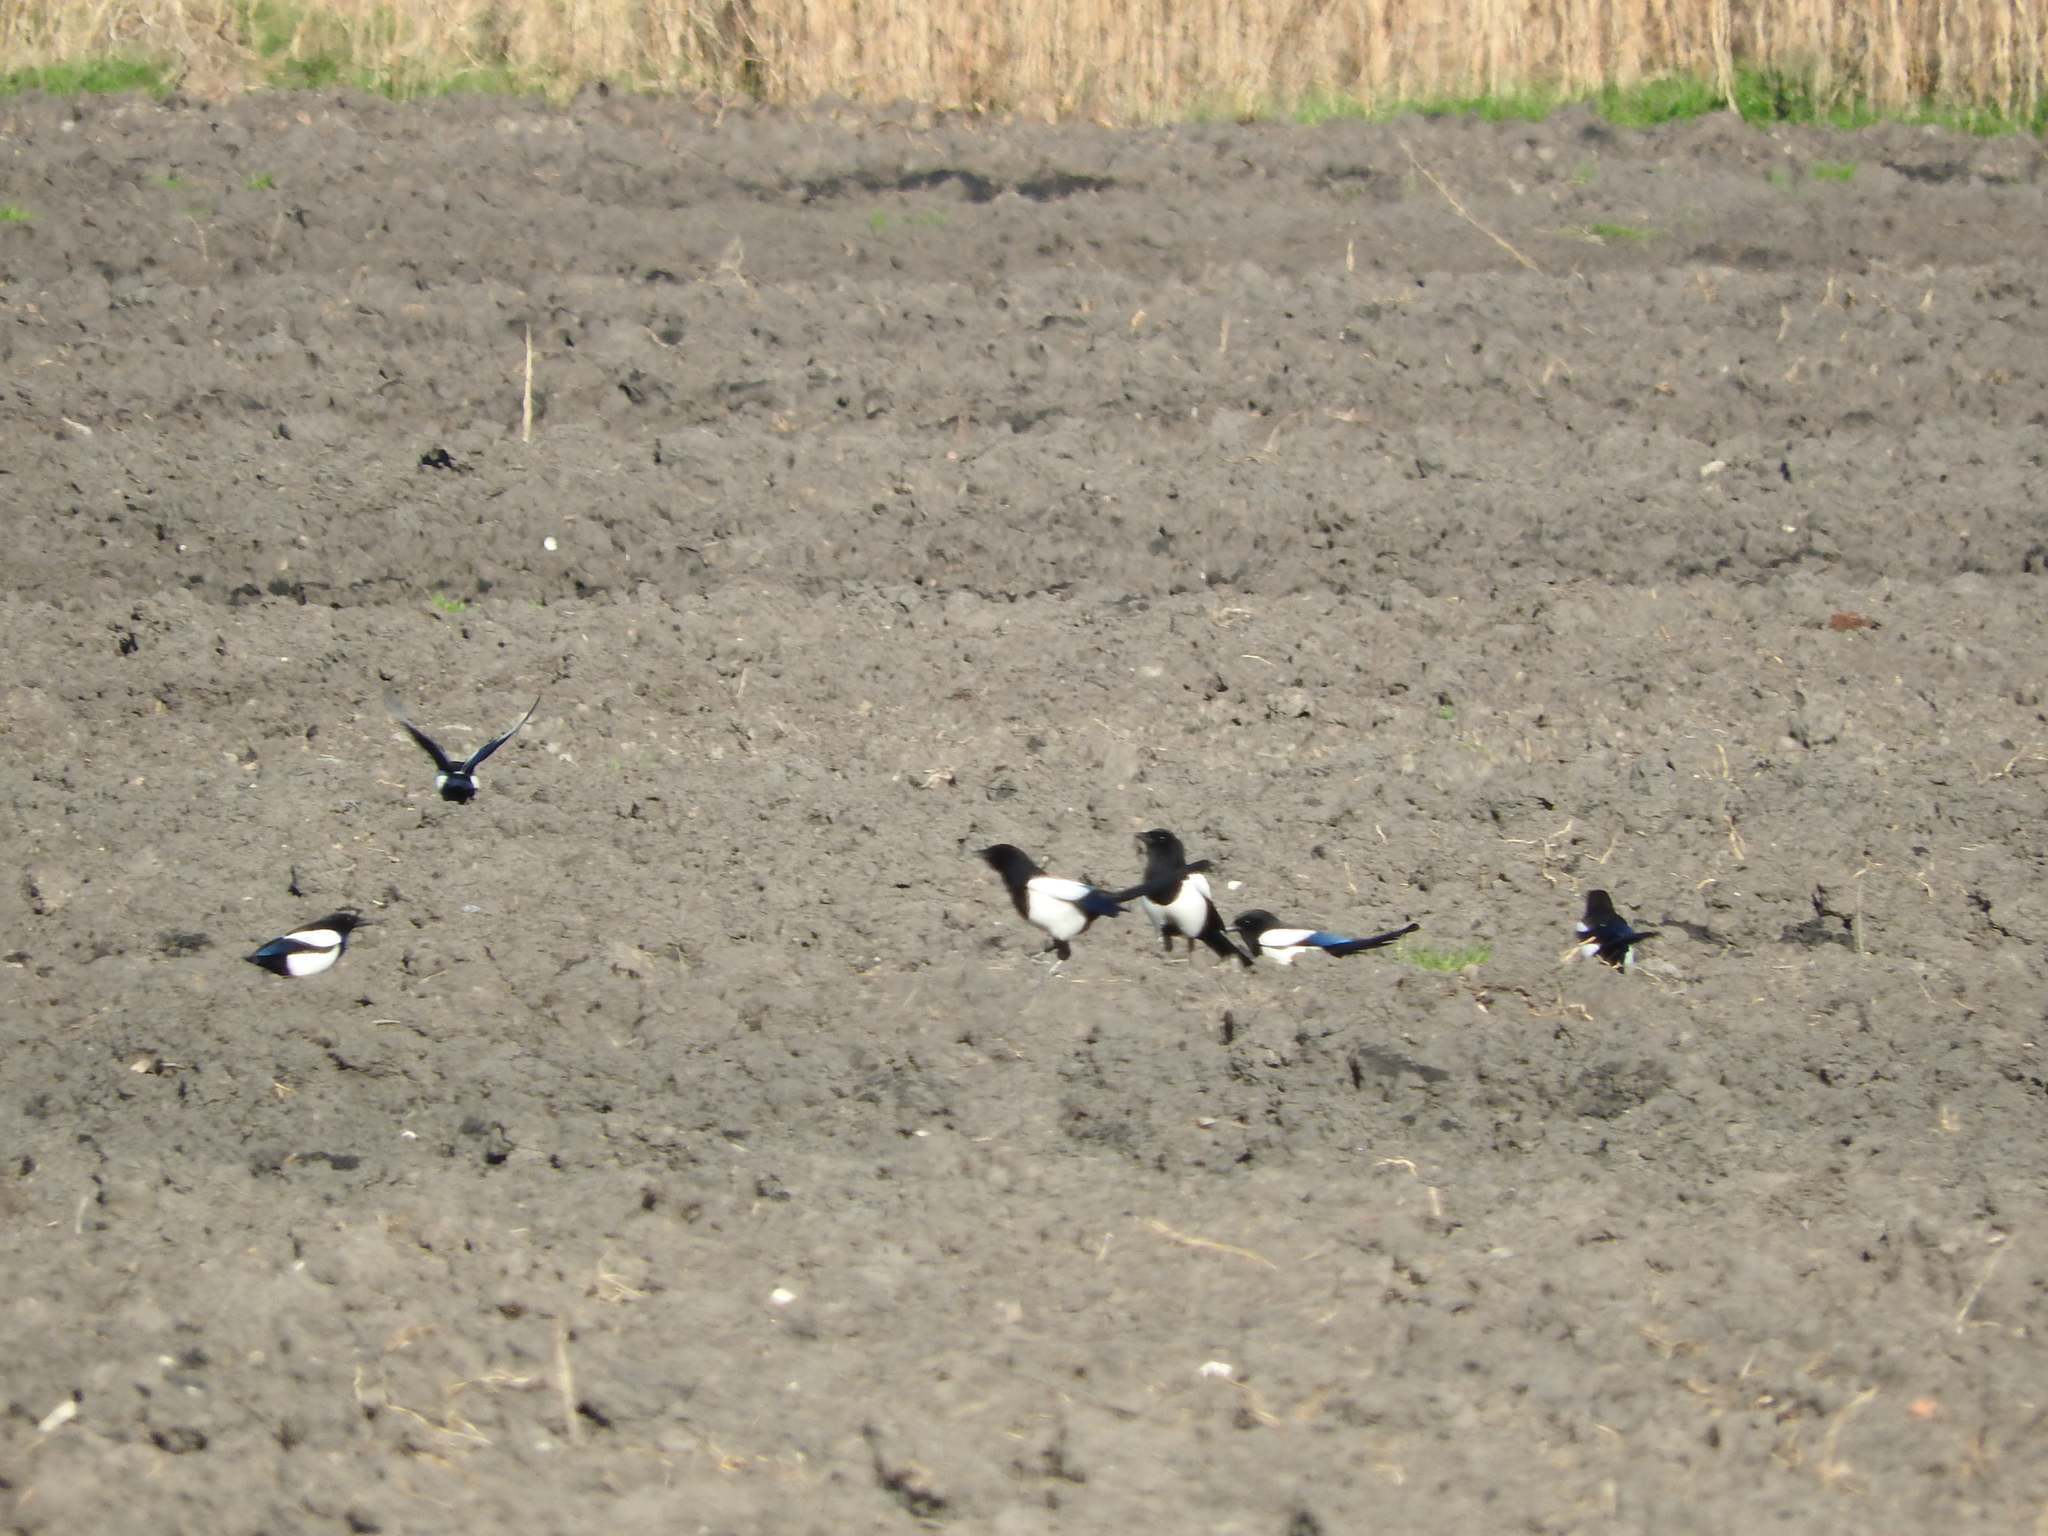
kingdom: Animalia
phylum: Chordata
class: Aves
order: Passeriformes
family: Corvidae
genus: Pica
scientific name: Pica pica
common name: Eurasian magpie
